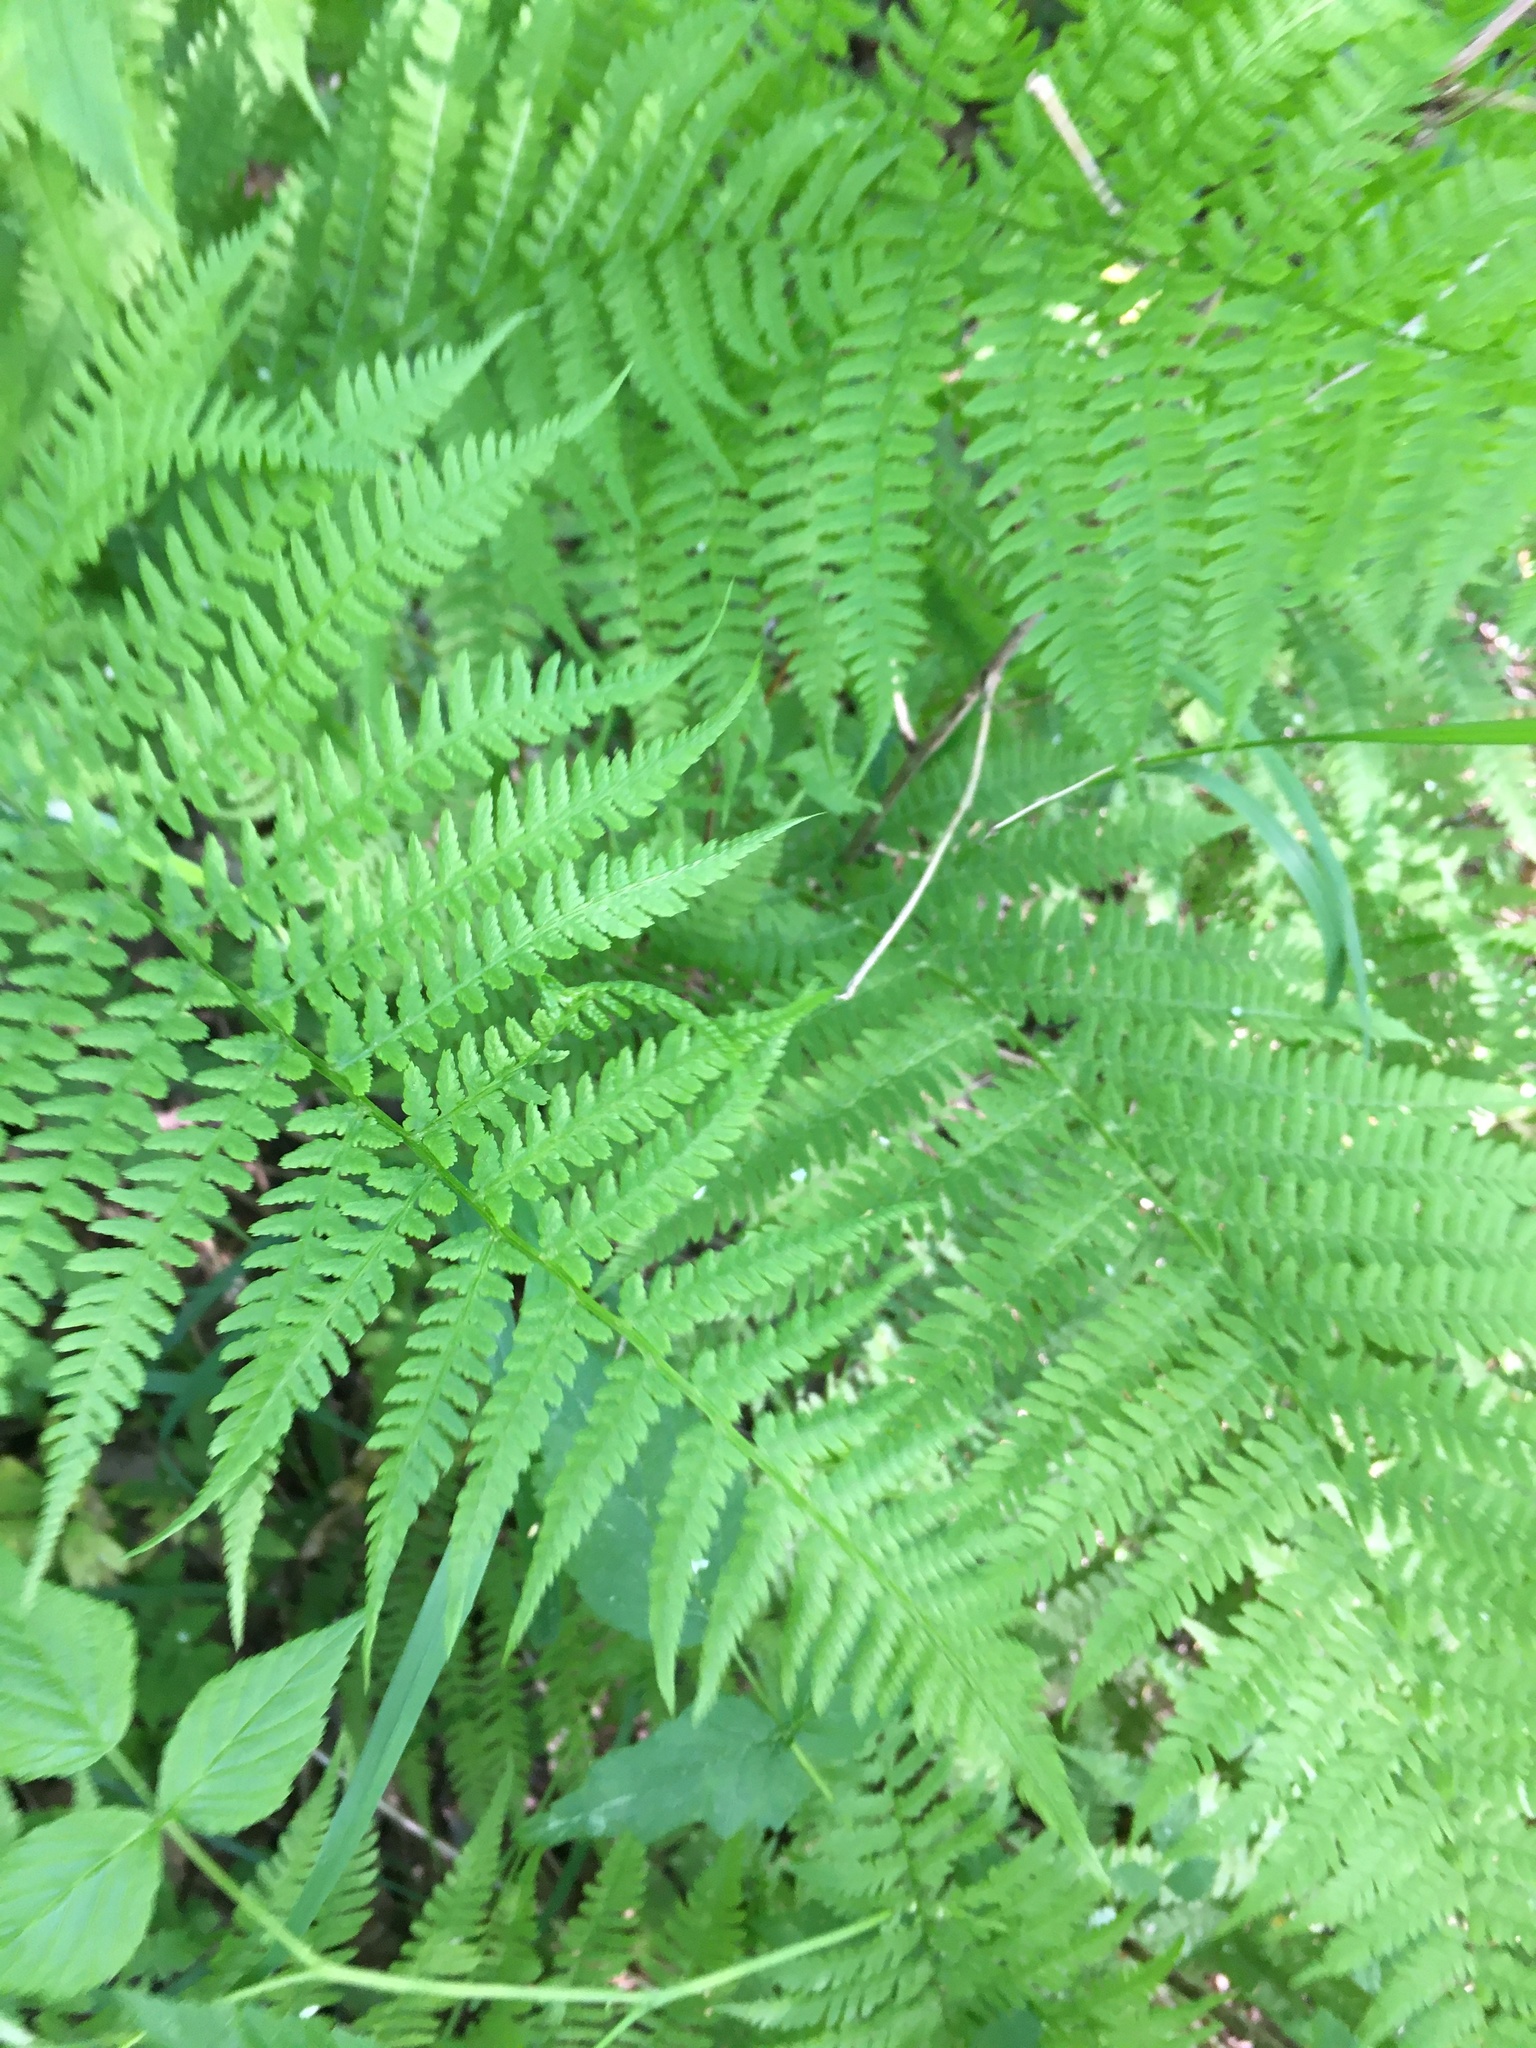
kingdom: Plantae
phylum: Tracheophyta
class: Polypodiopsida
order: Polypodiales
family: Athyriaceae
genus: Athyrium
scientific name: Athyrium filix-femina
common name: Lady fern
